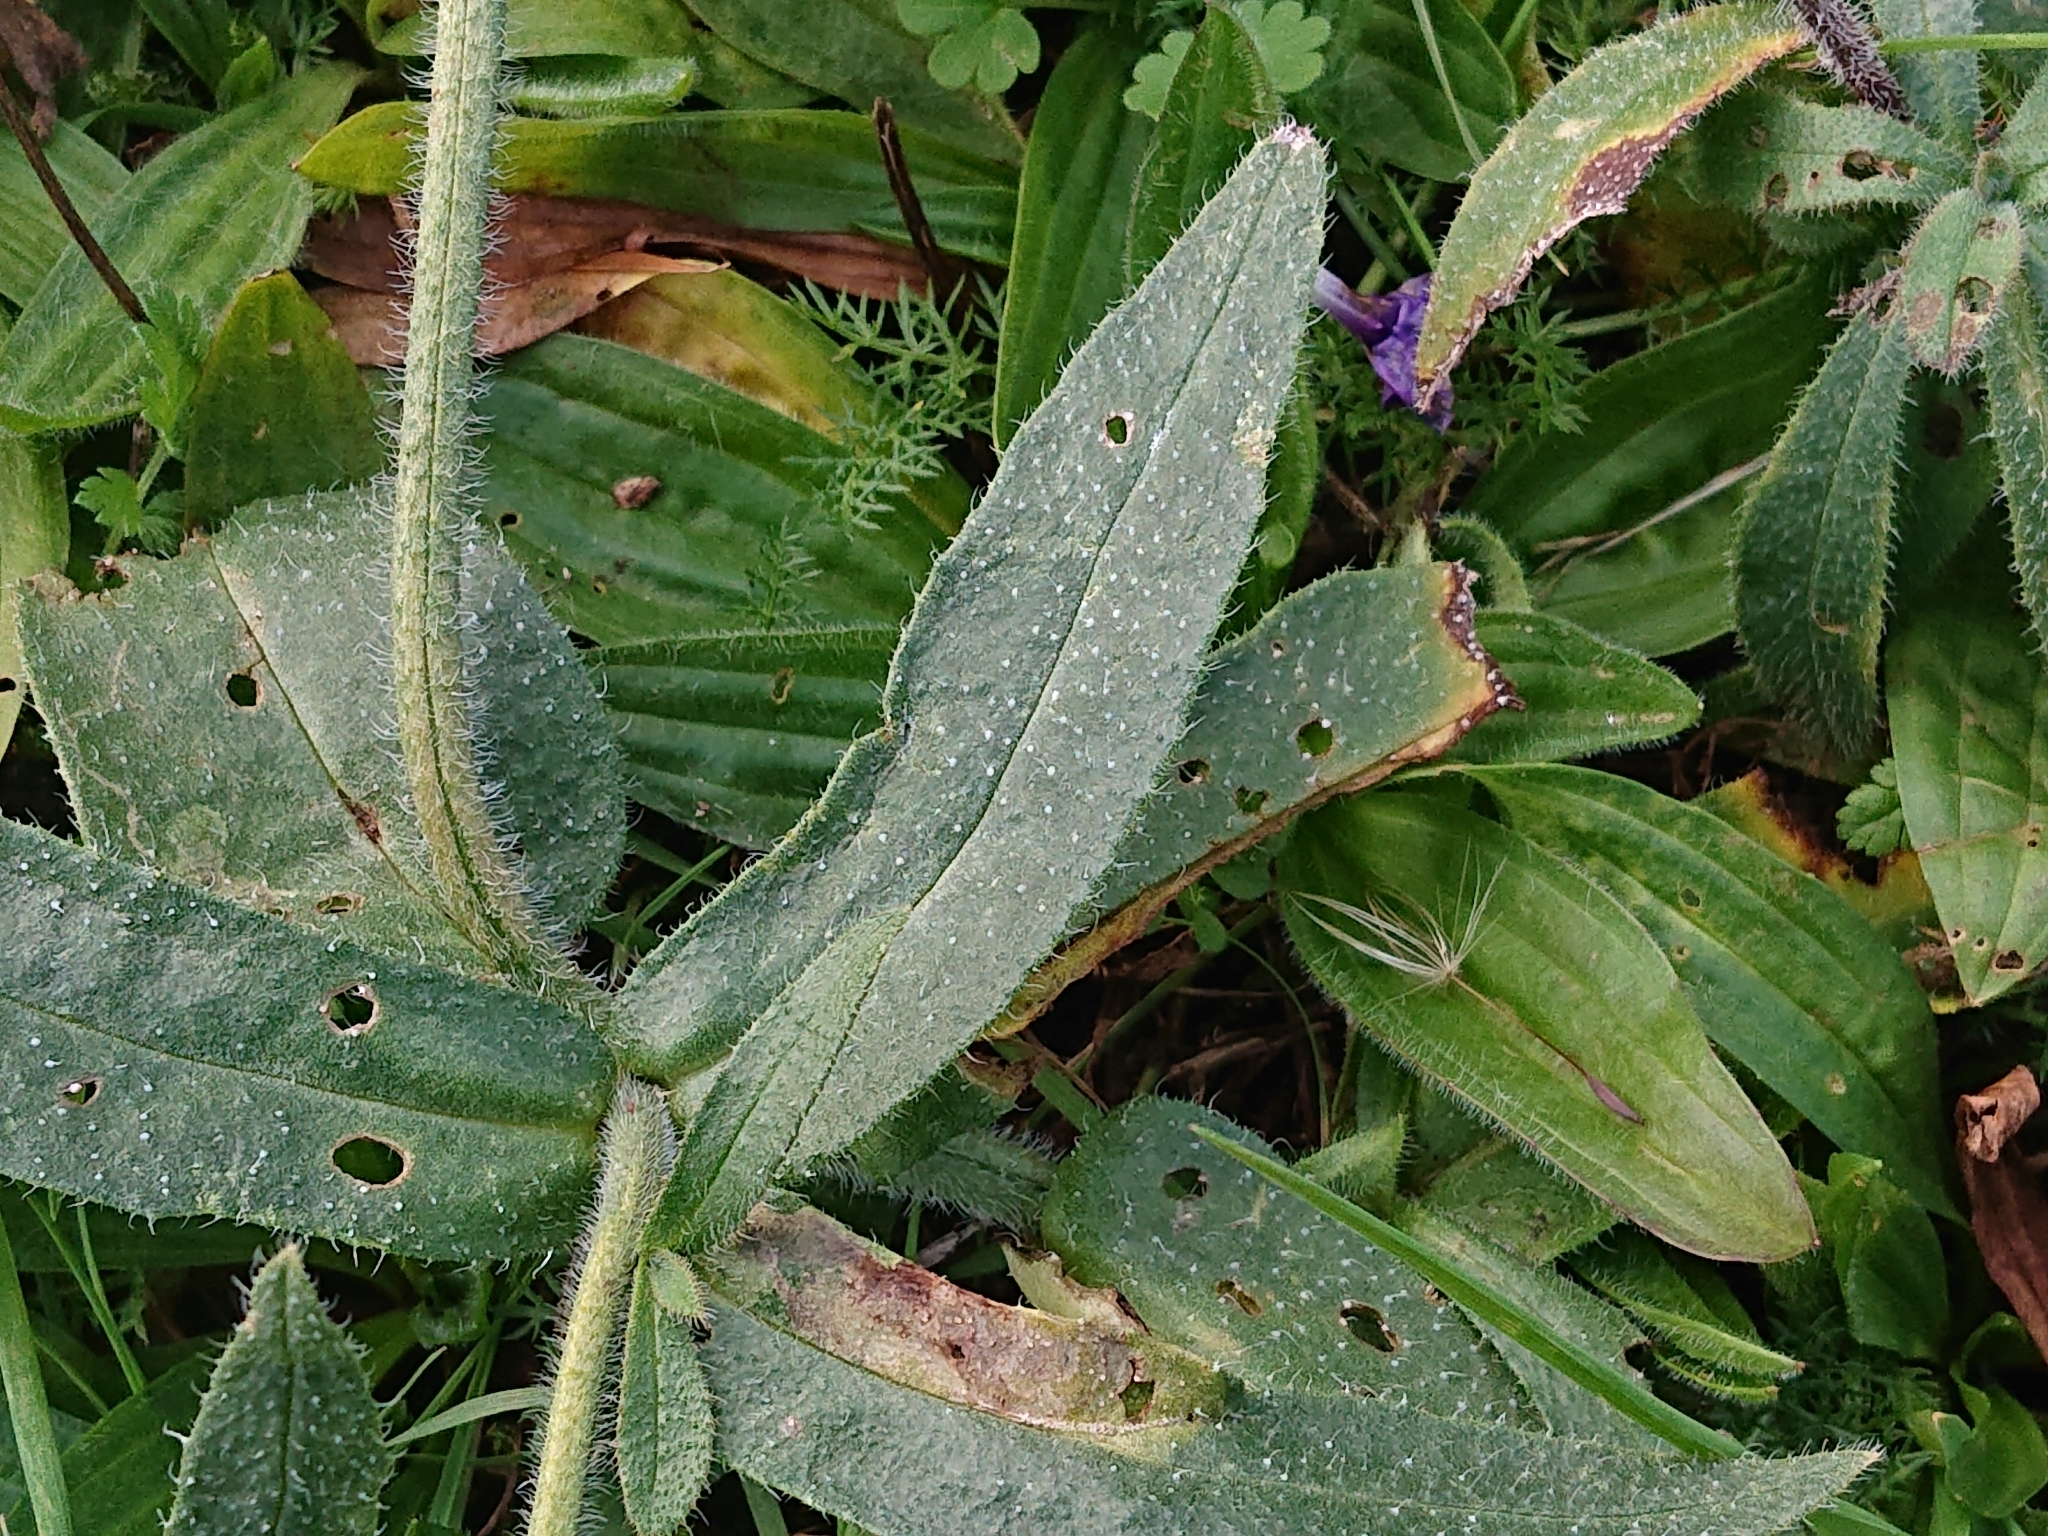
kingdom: Plantae
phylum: Tracheophyta
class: Magnoliopsida
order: Boraginales
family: Boraginaceae
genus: Anchusa
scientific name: Anchusa officinalis
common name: Alkanet
